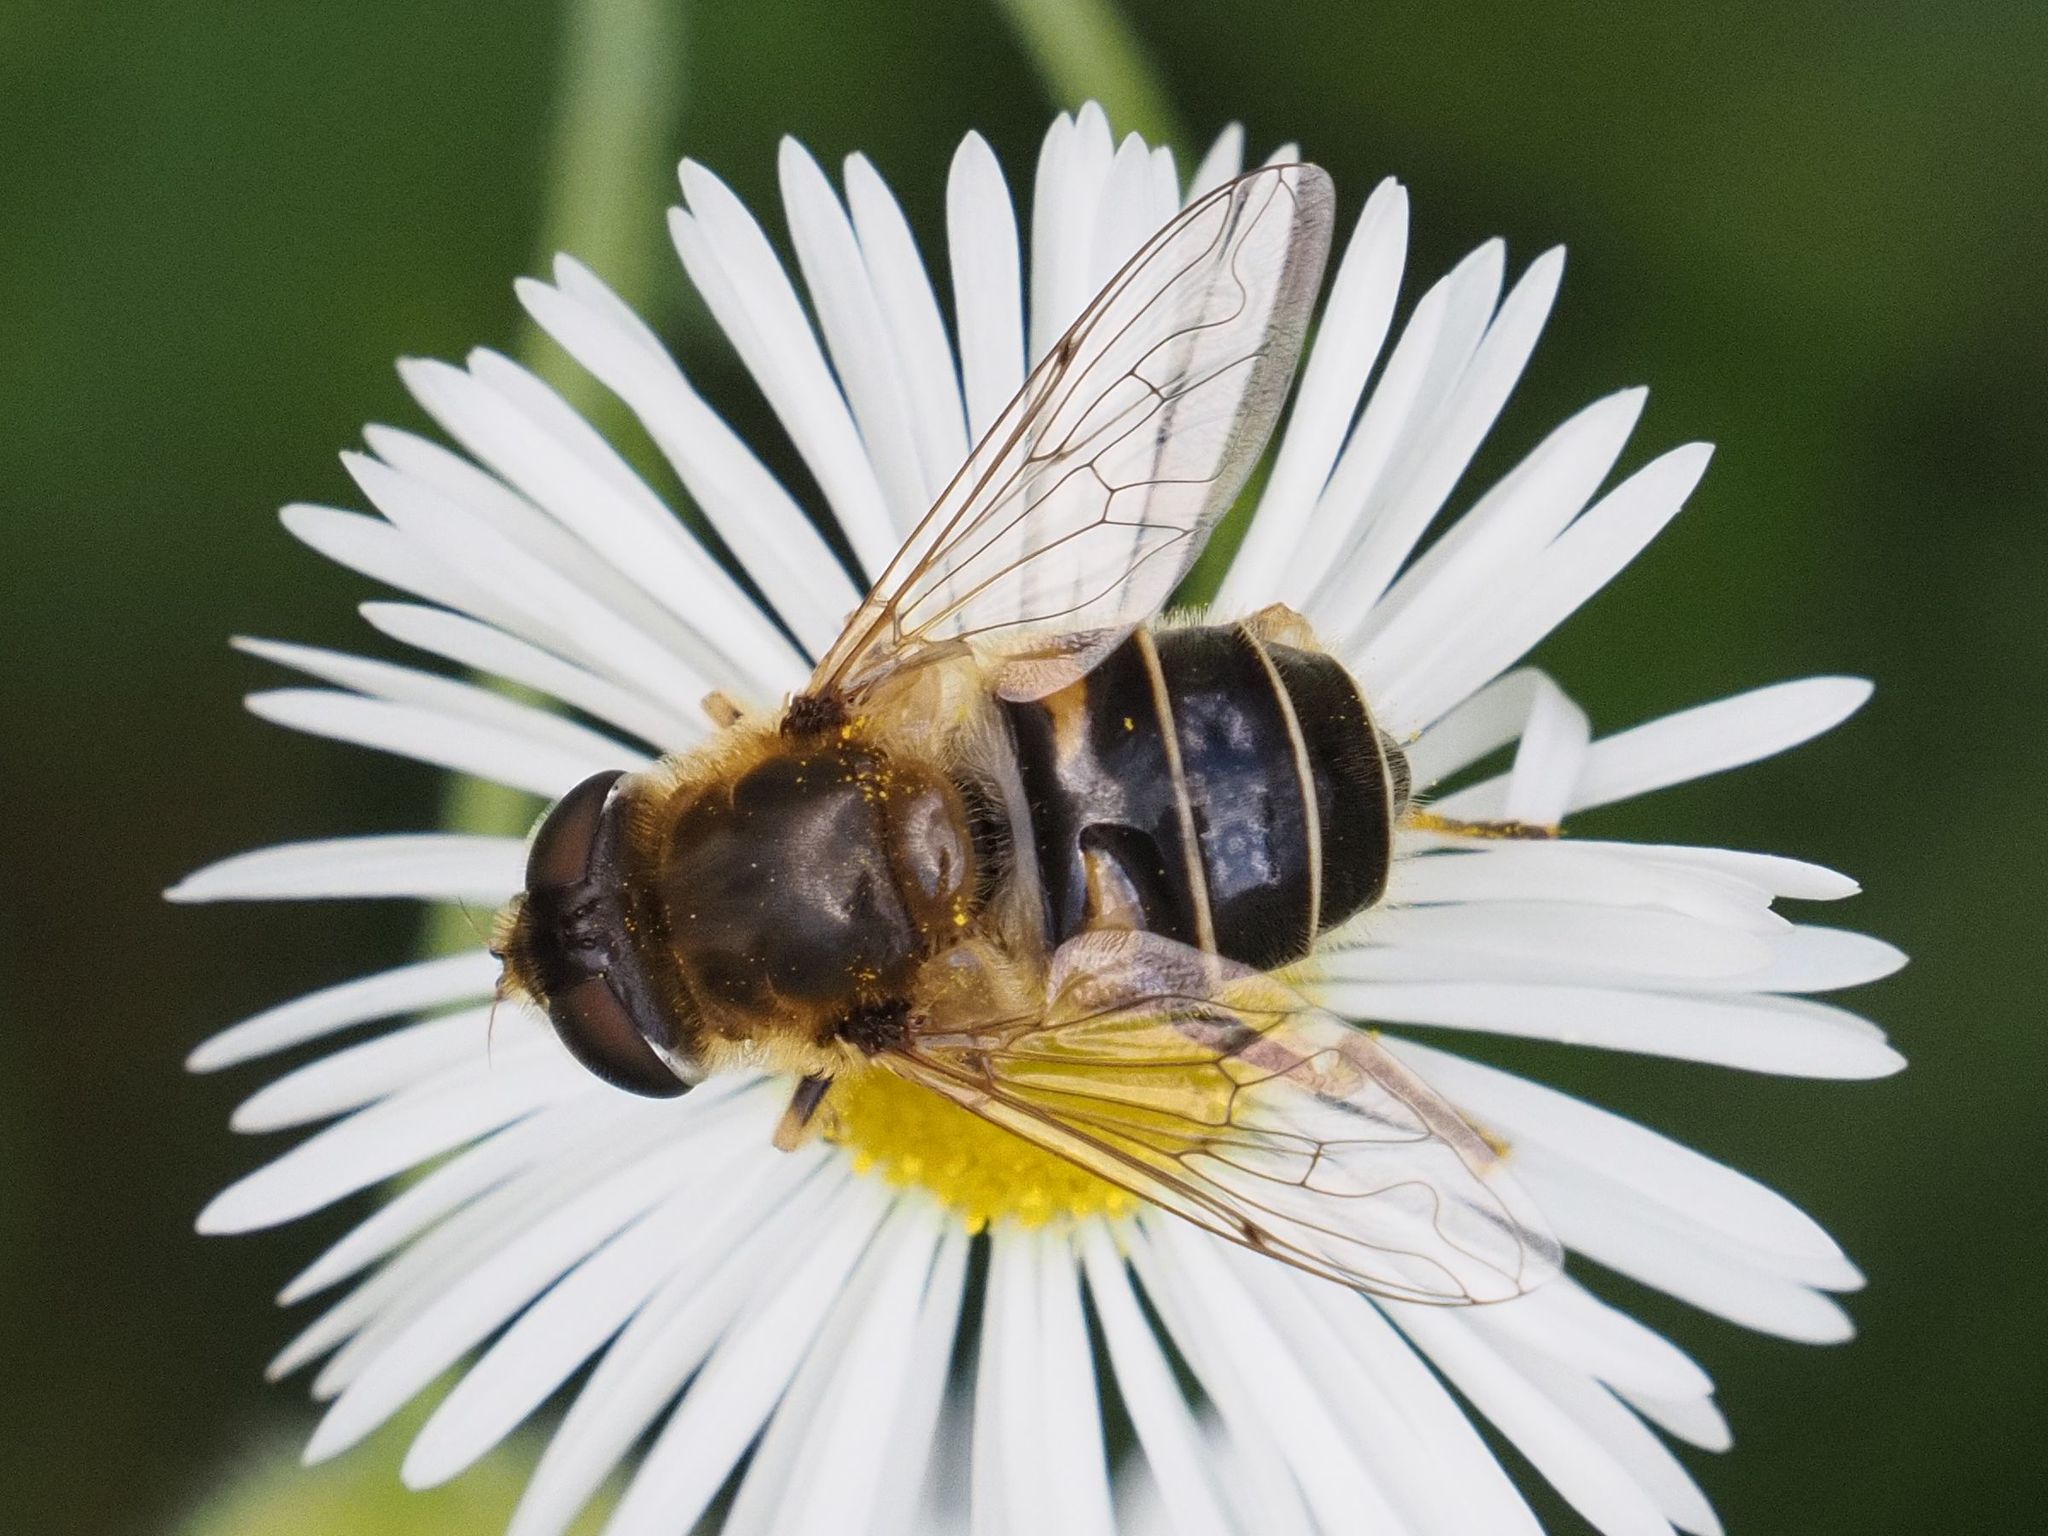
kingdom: Animalia
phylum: Arthropoda
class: Insecta
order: Diptera
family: Syrphidae
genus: Eristalis
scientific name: Eristalis nemorum
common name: Orange-spined drone fly
